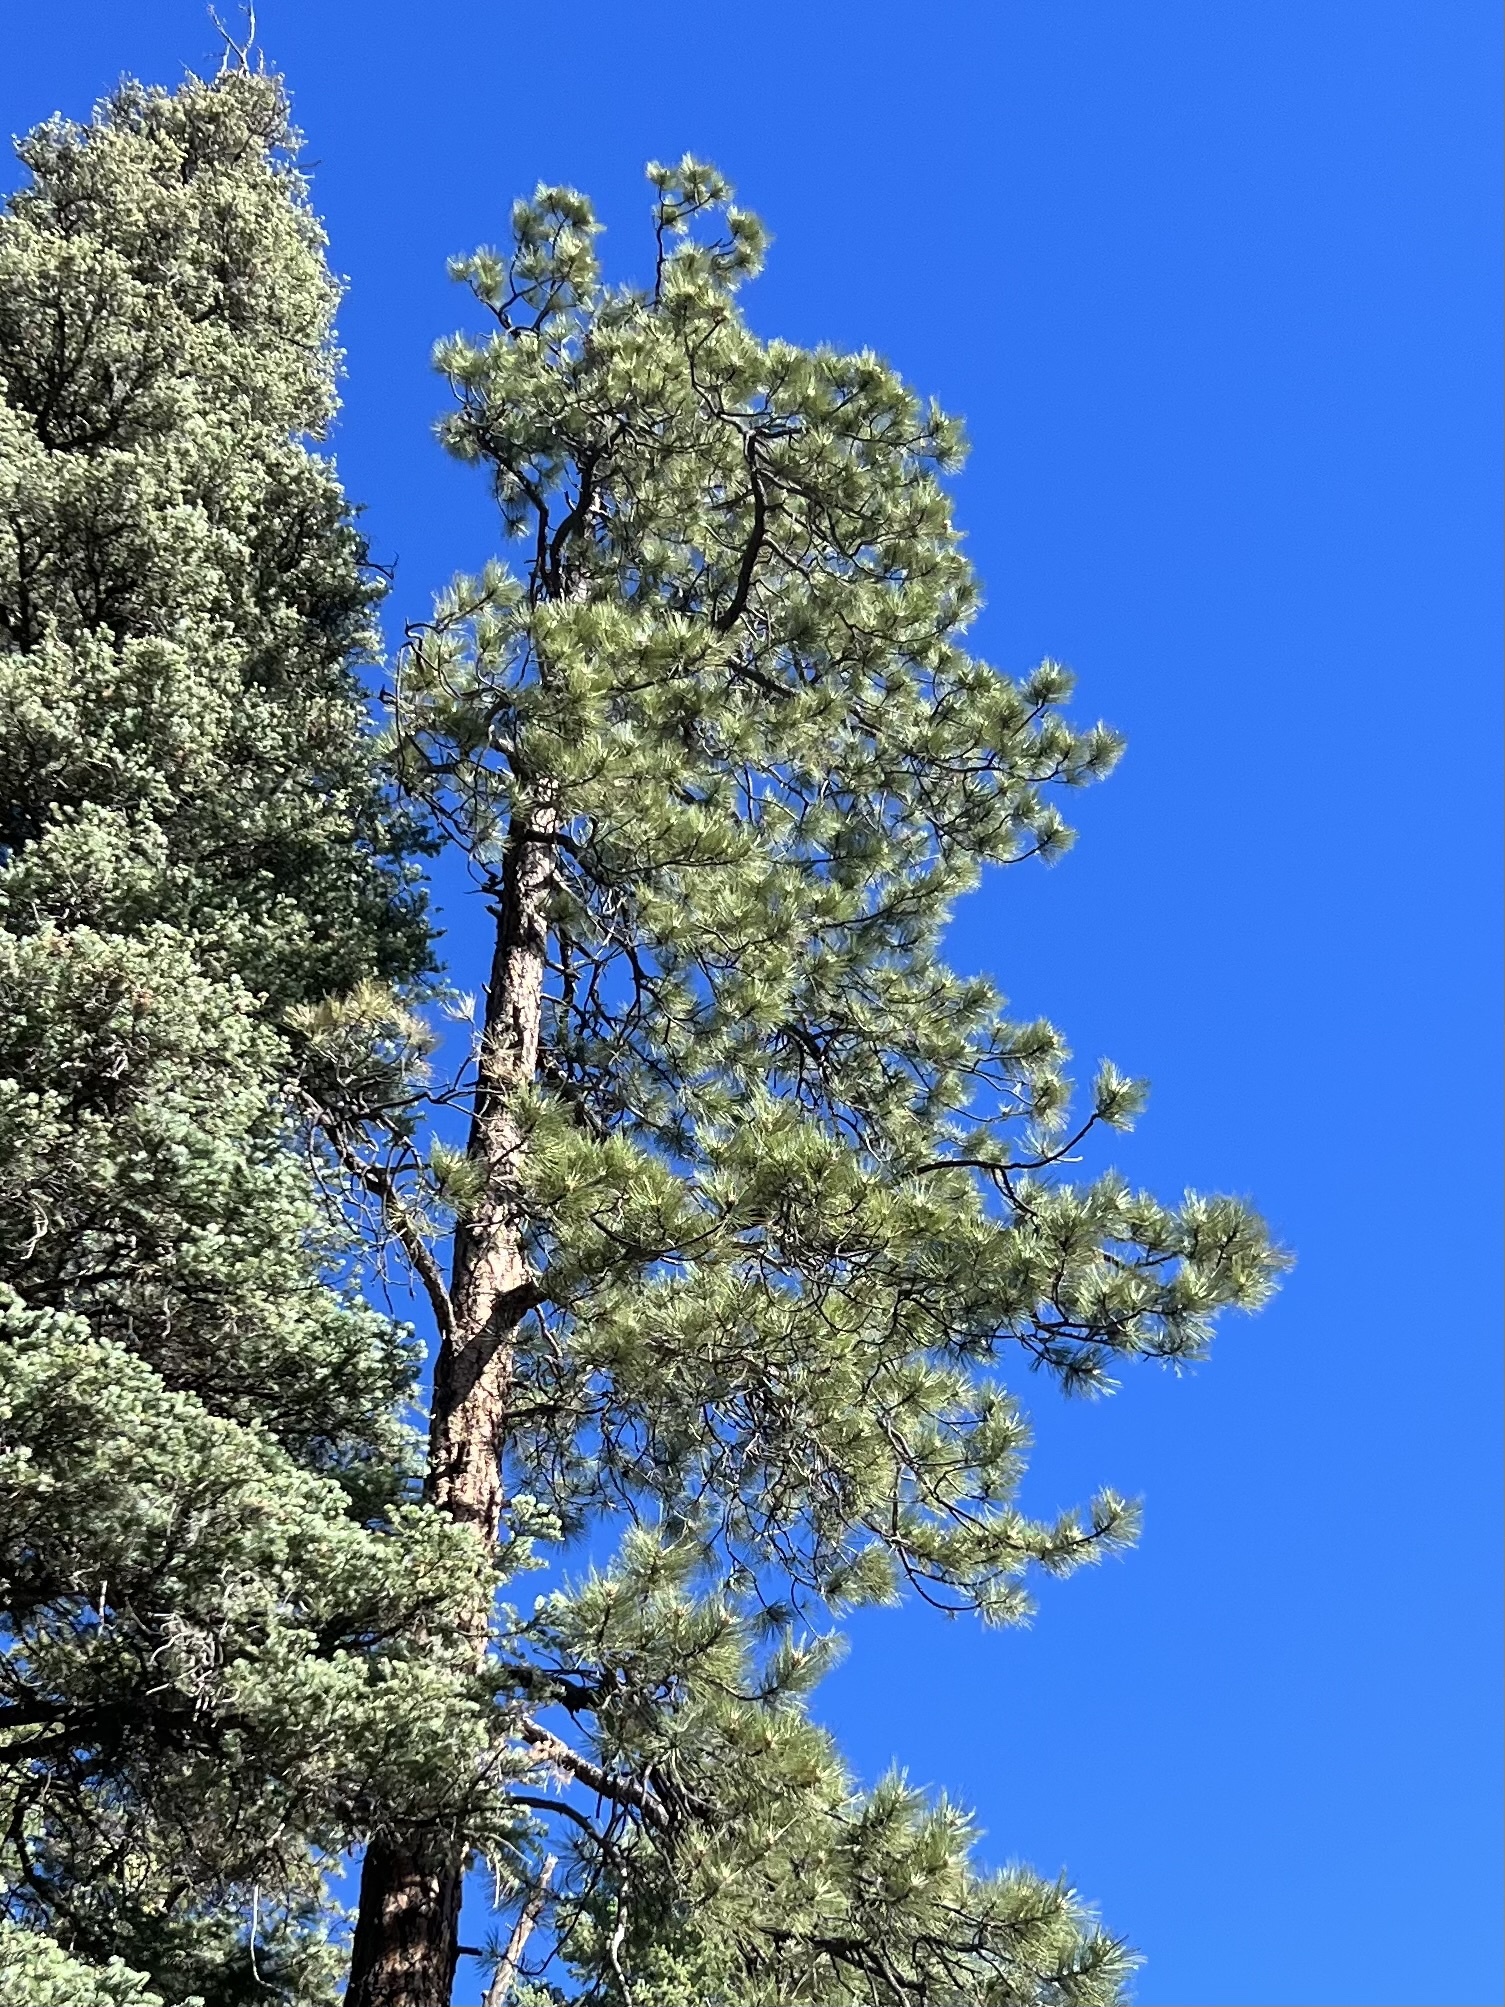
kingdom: Plantae
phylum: Tracheophyta
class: Pinopsida
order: Pinales
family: Pinaceae
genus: Pinus
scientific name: Pinus ponderosa
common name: Western yellow-pine
